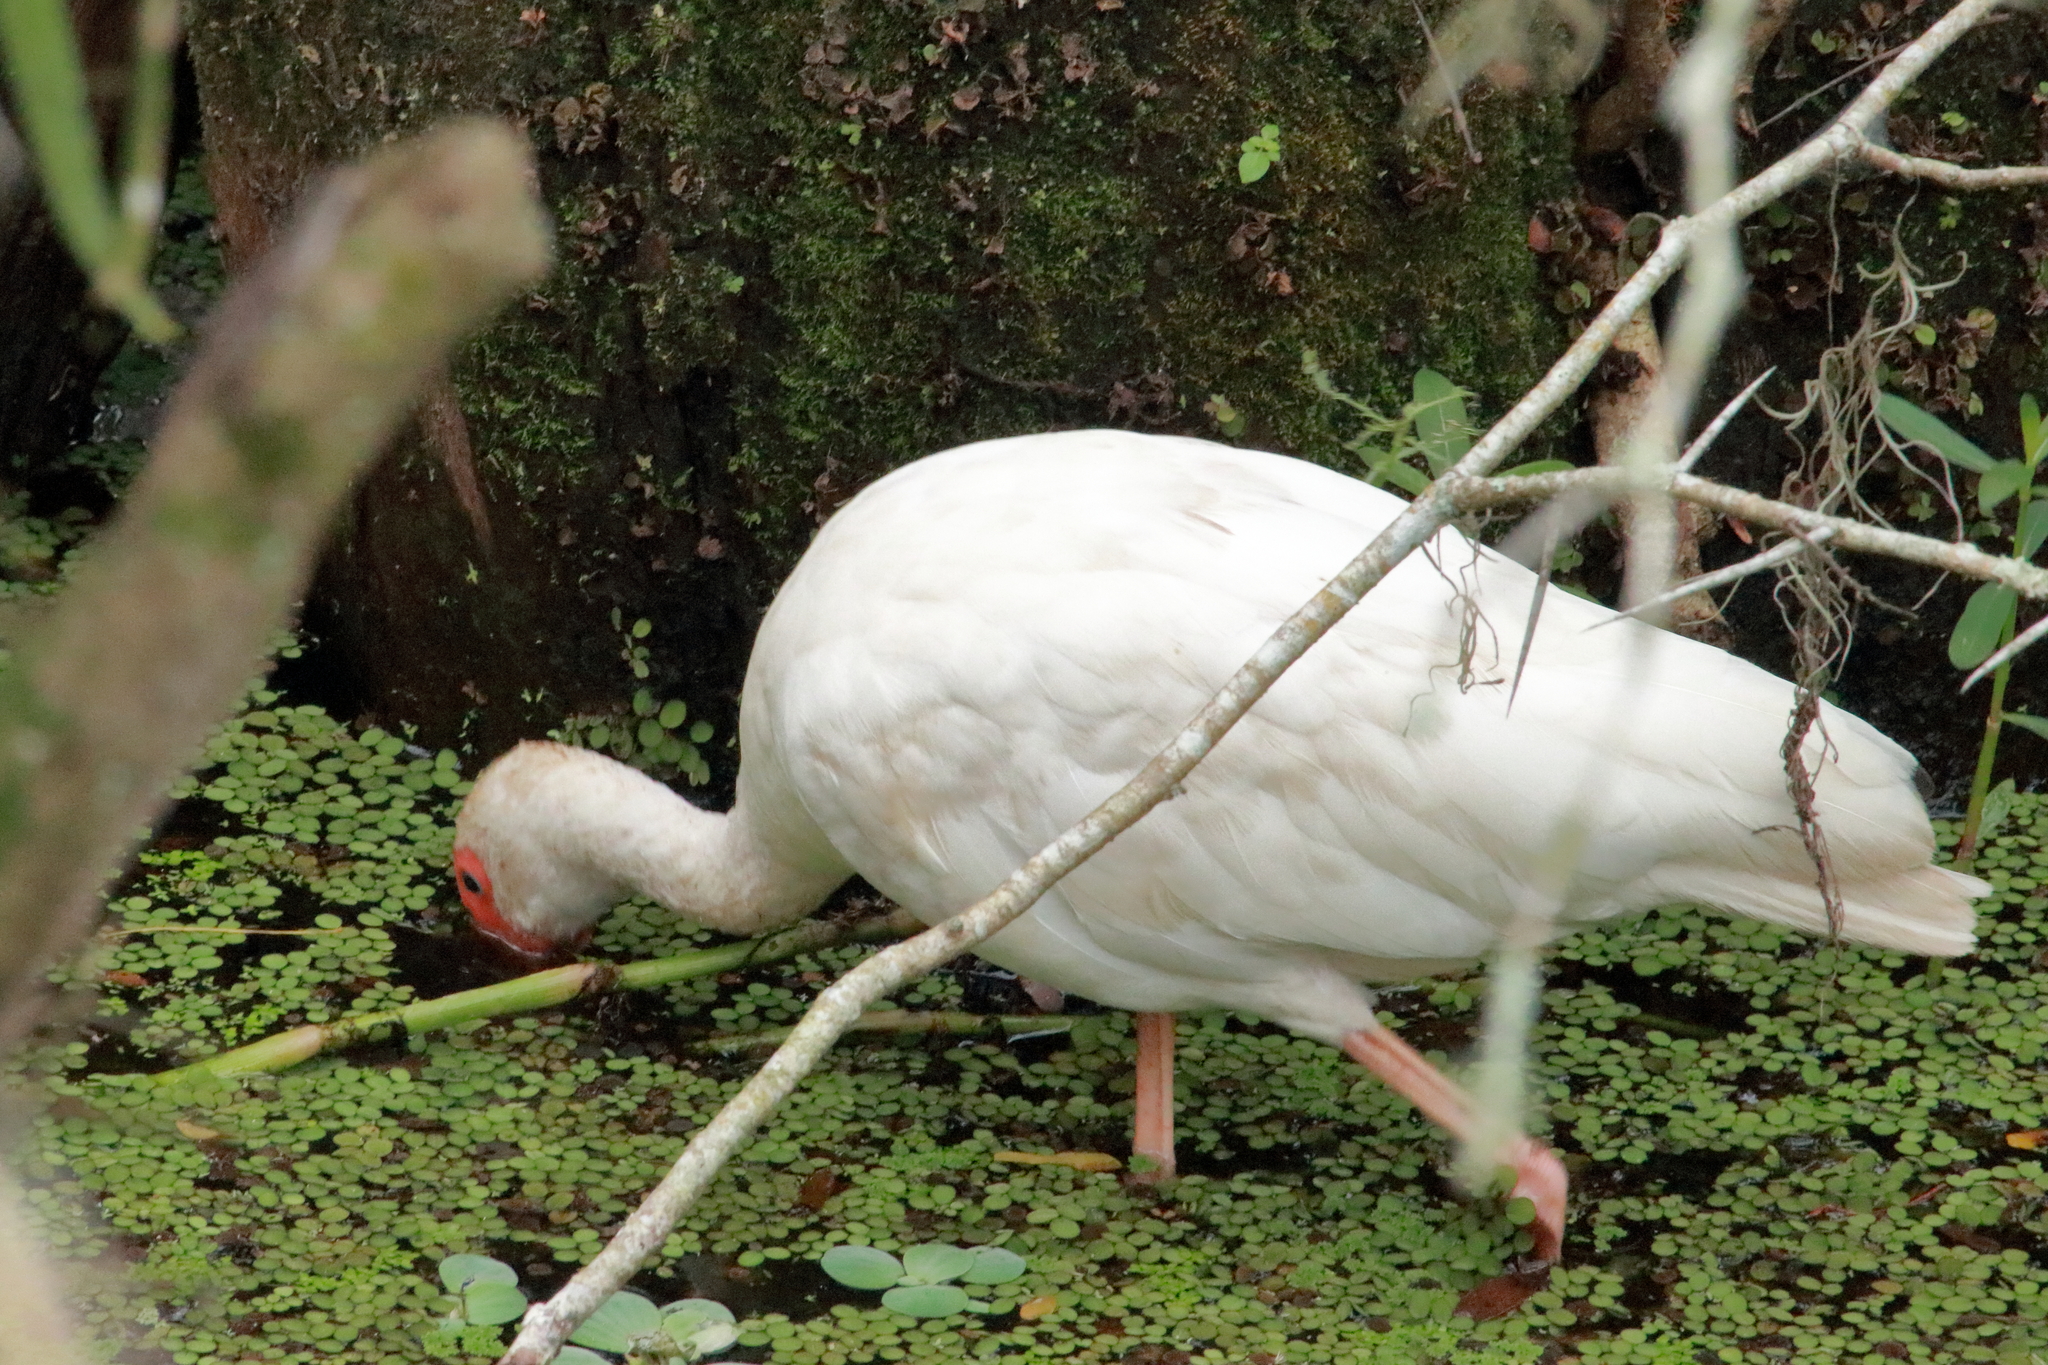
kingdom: Animalia
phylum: Chordata
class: Aves
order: Pelecaniformes
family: Threskiornithidae
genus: Eudocimus
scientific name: Eudocimus albus
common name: White ibis
